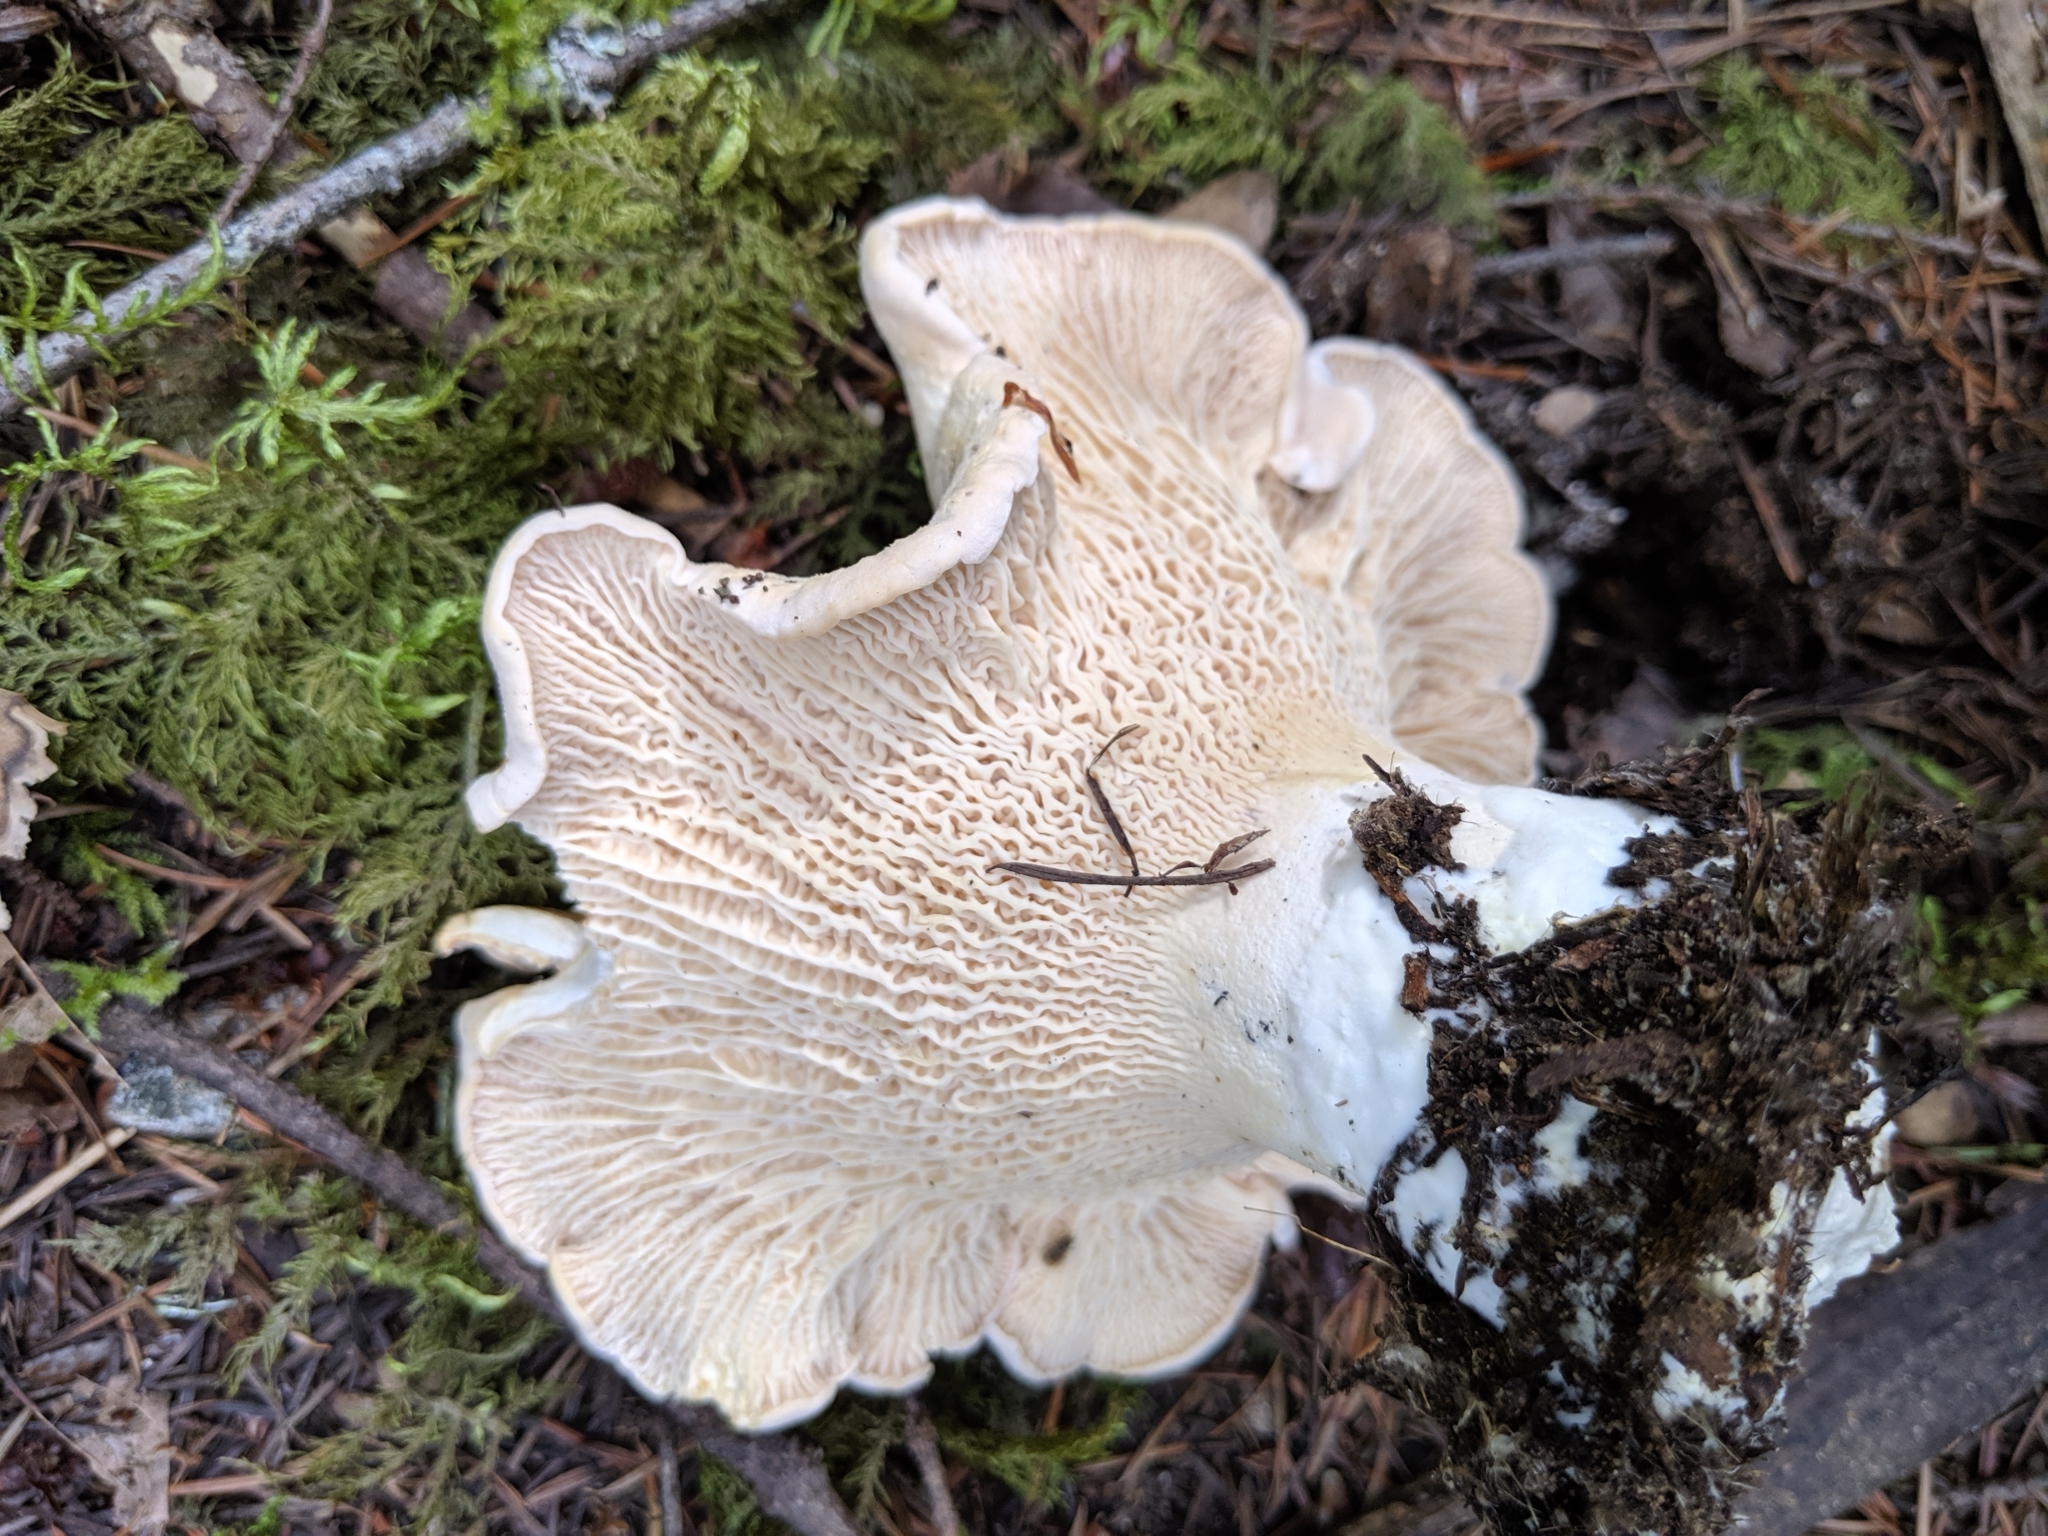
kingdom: Fungi
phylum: Basidiomycota
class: Agaricomycetes
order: Cantharellales
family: Hydnaceae
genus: Cantharellus
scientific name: Cantharellus subalbidus
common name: White chanterelle
